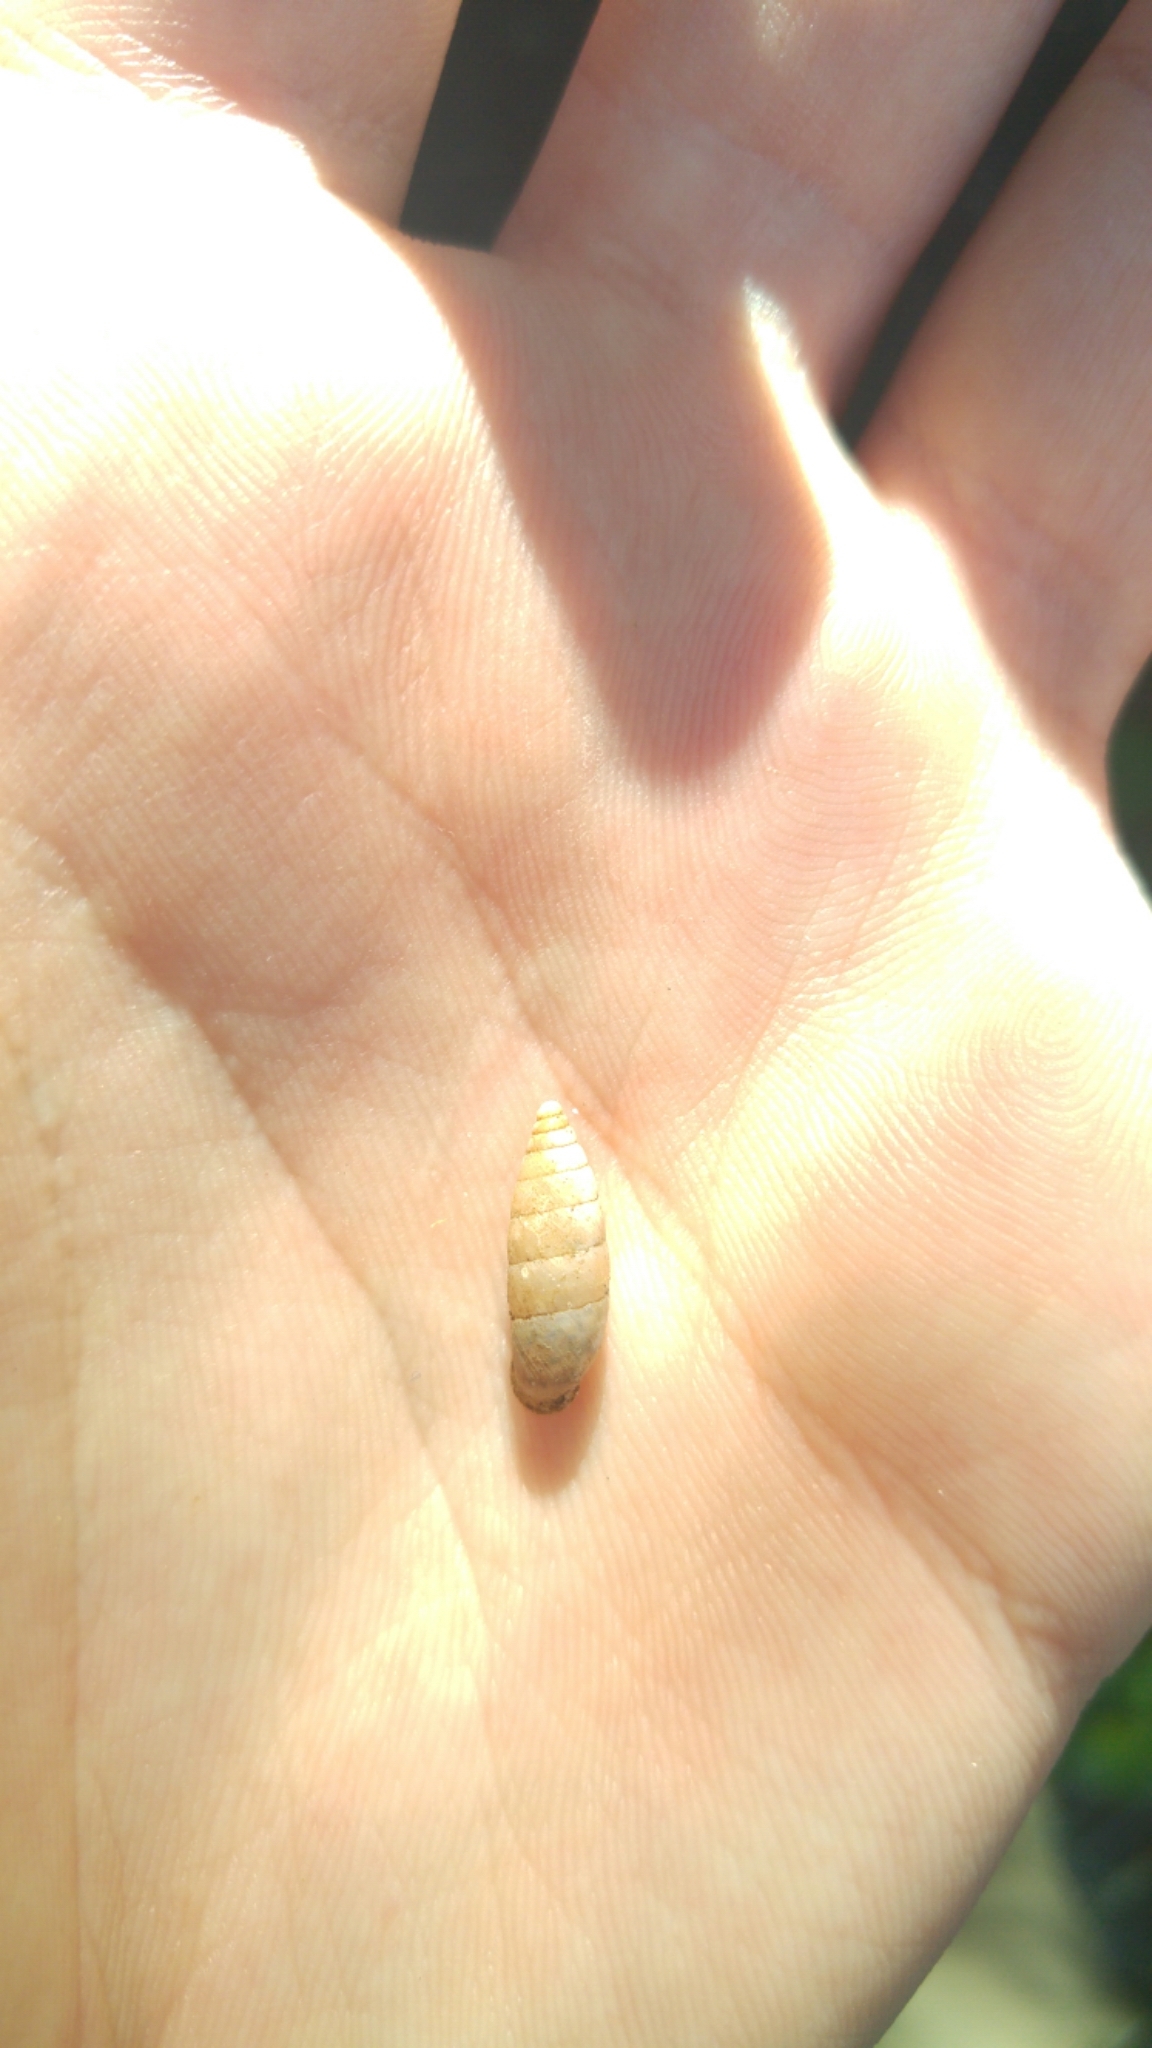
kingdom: Animalia
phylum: Mollusca
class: Gastropoda
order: Stylommatophora
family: Enidae
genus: Pene
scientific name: Pene bulimoides
